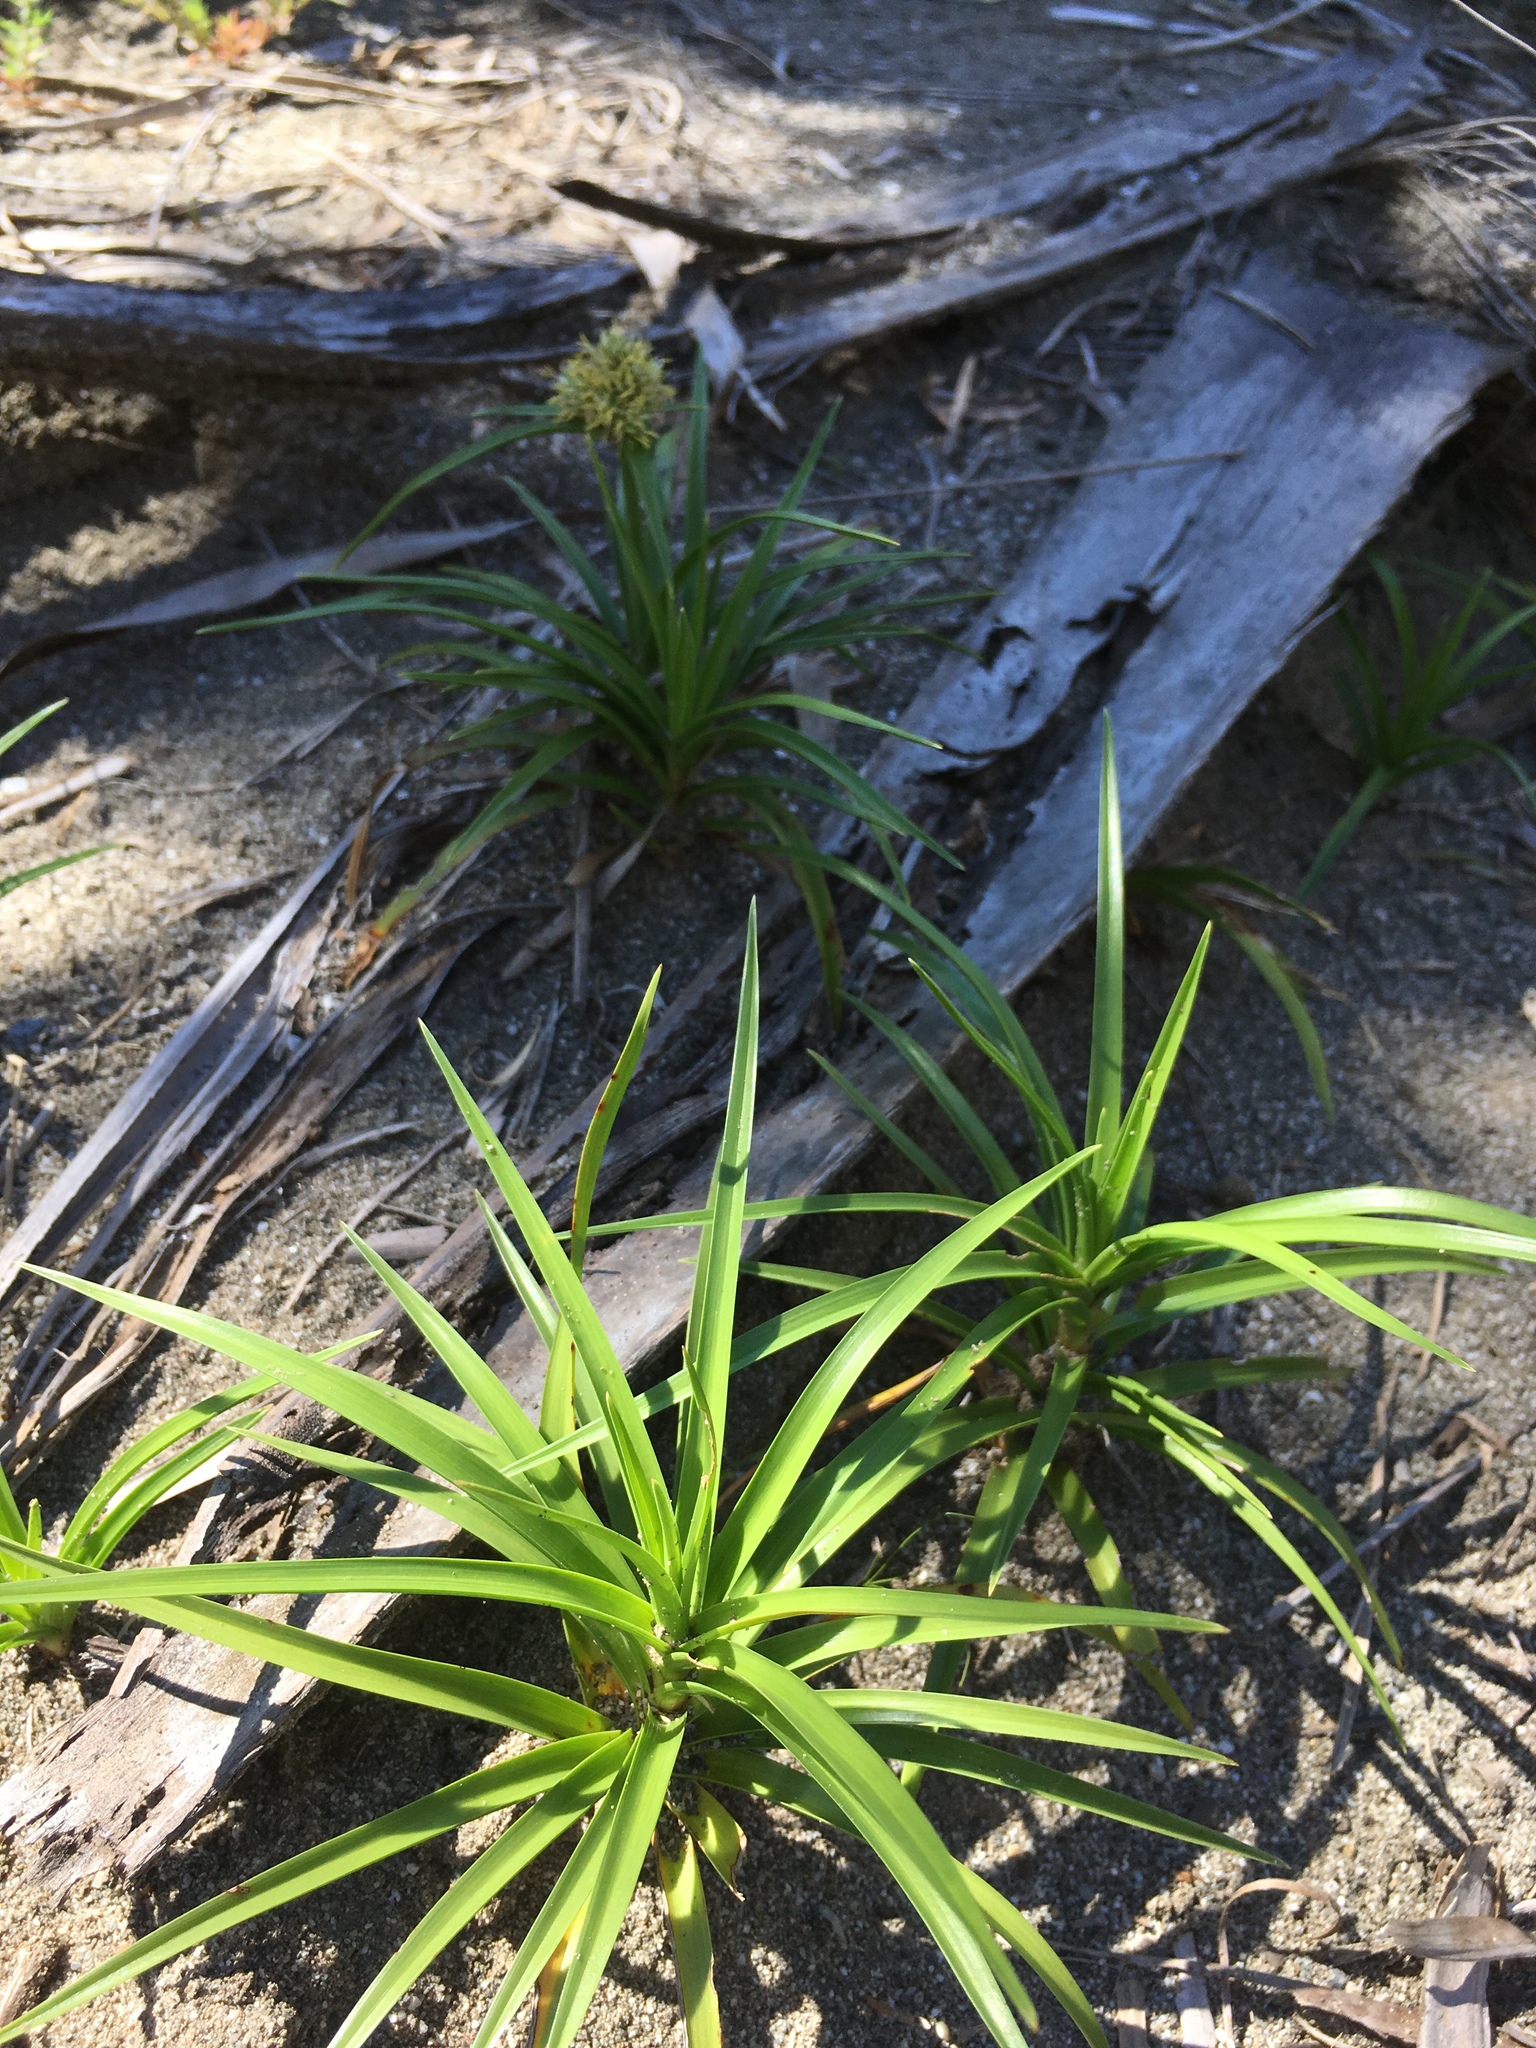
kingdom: Plantae
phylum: Tracheophyta
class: Liliopsida
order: Poales
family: Cyperaceae
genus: Cyperus
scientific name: Cyperus pedunculatus
